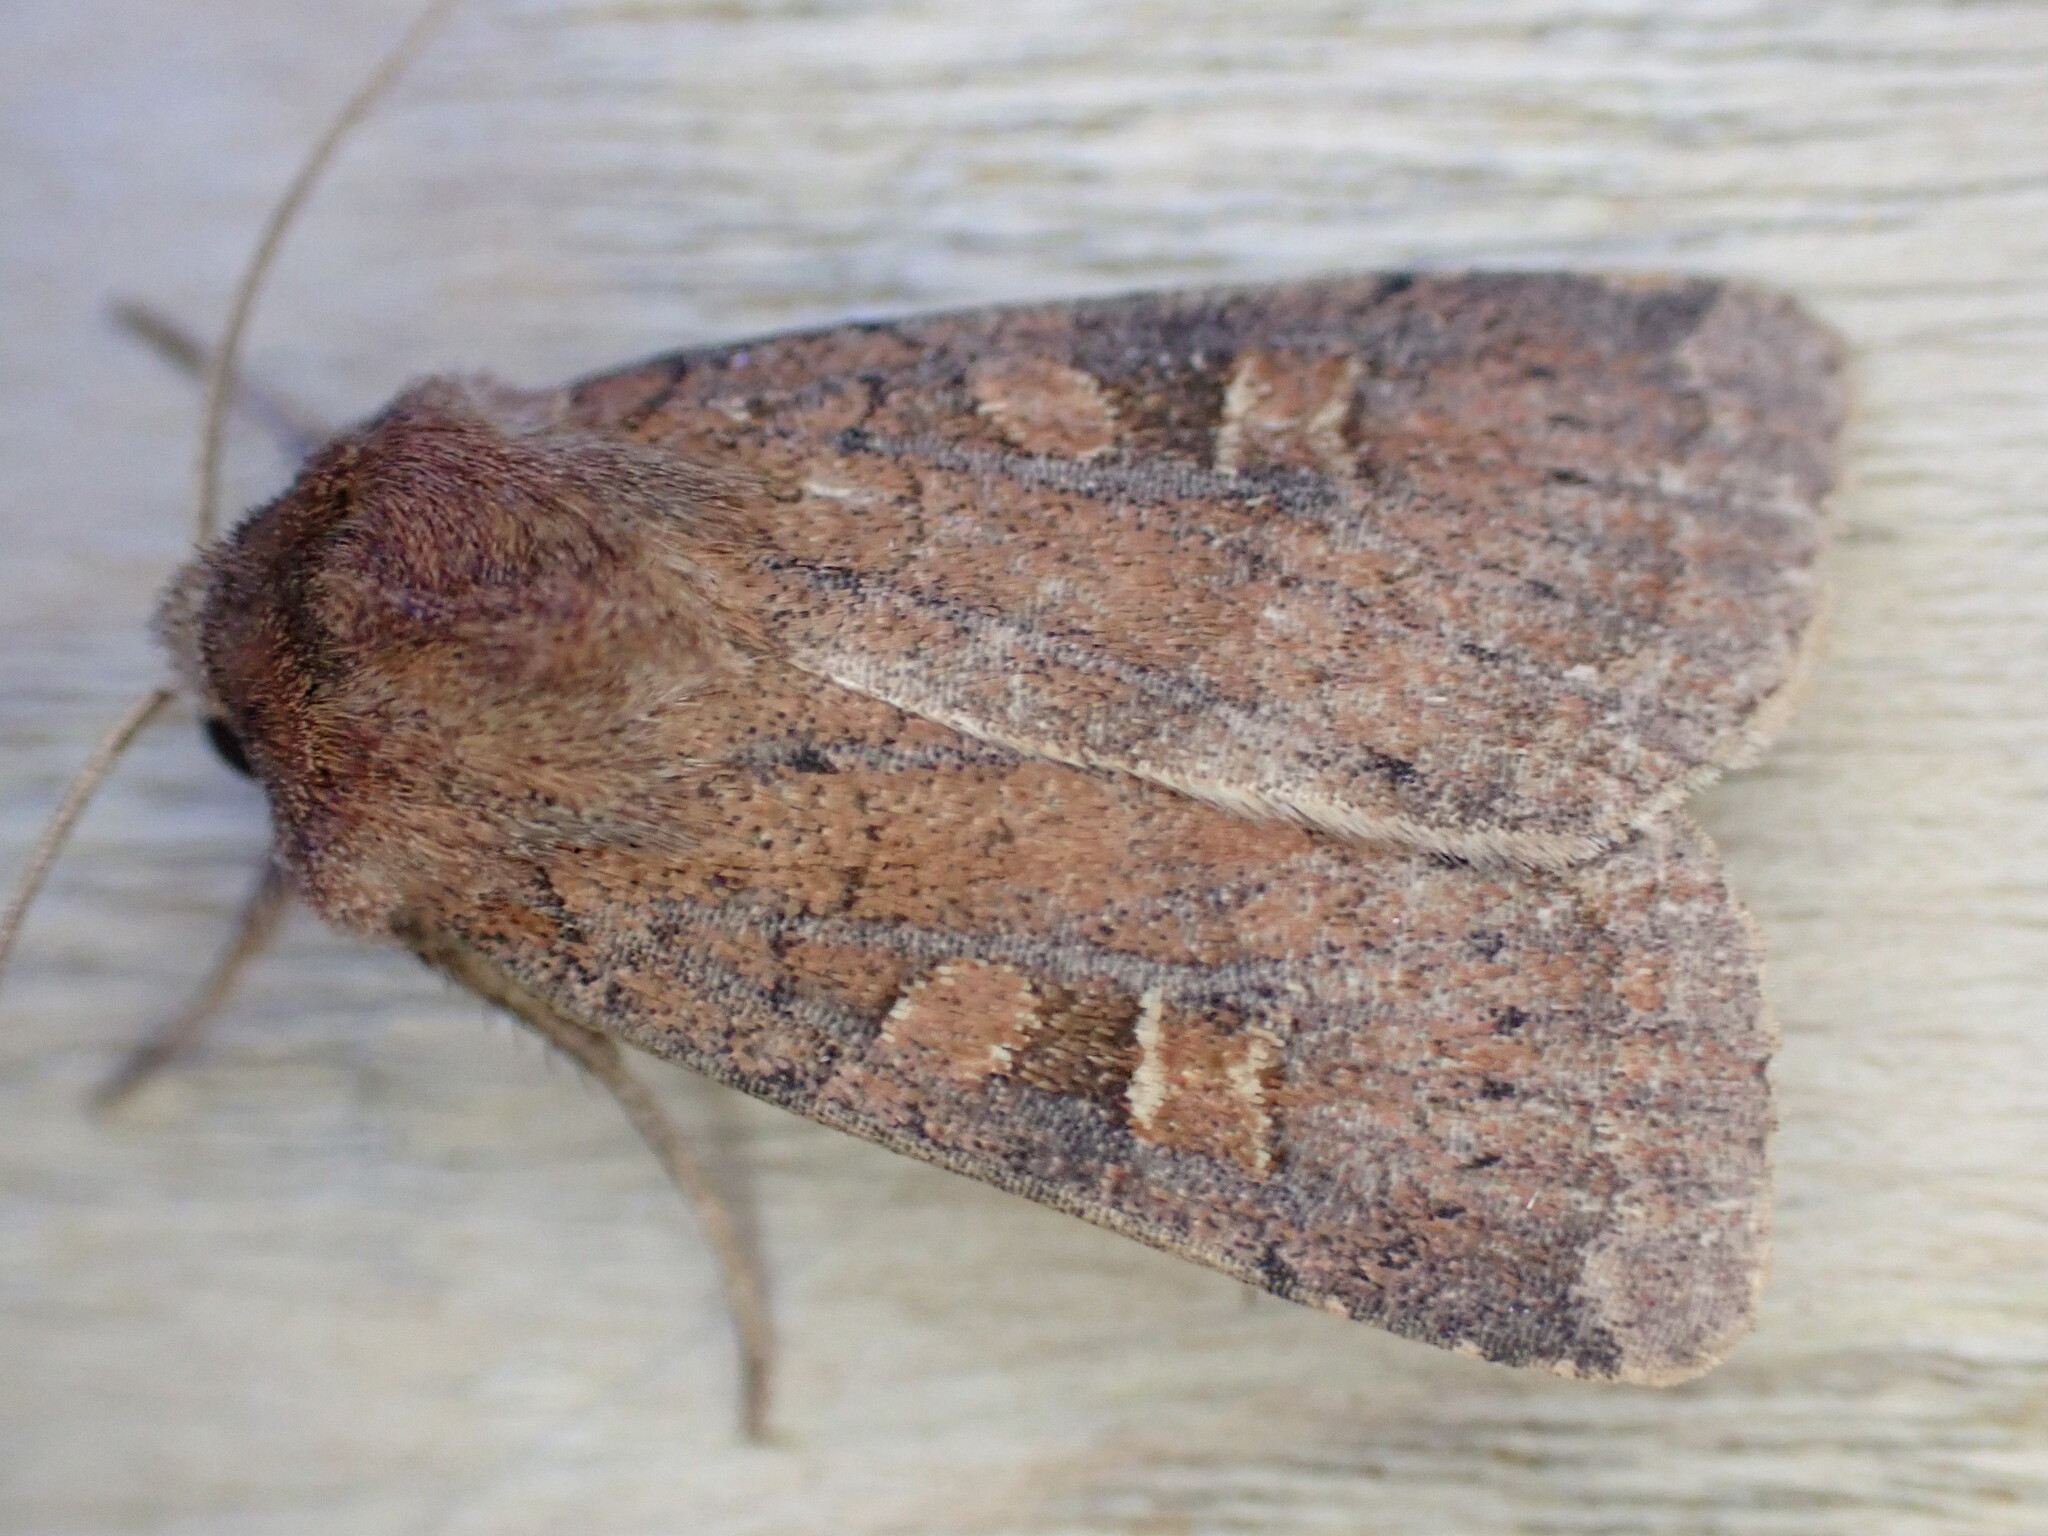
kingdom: Animalia
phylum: Arthropoda
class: Insecta
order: Lepidoptera
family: Noctuidae
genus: Xestia
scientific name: Xestia xanthographa
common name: Square-spot rustic
